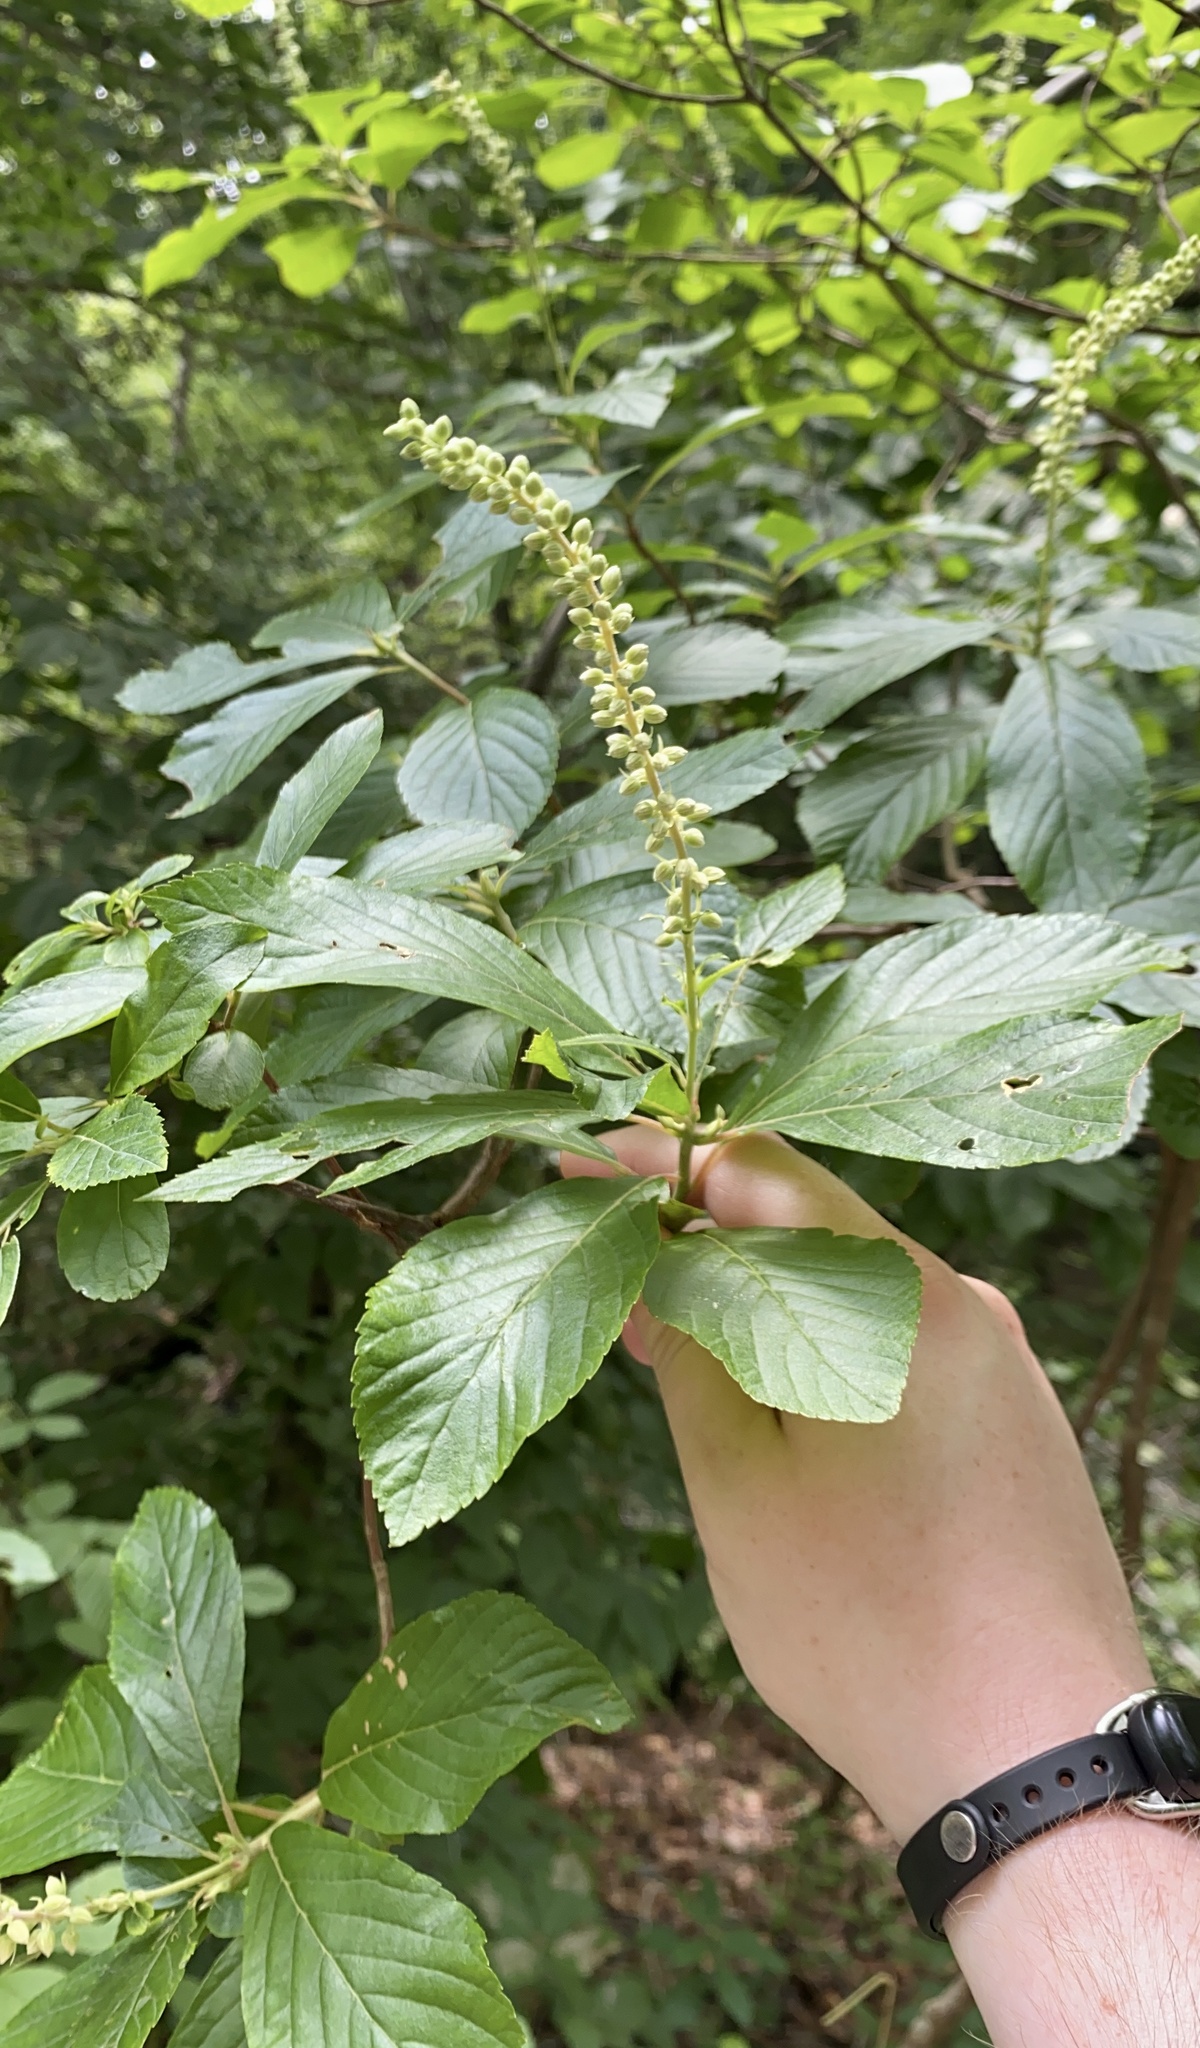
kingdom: Plantae
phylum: Tracheophyta
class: Magnoliopsida
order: Ericales
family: Clethraceae
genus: Clethra
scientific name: Clethra alnifolia
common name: Sweet pepperbush
